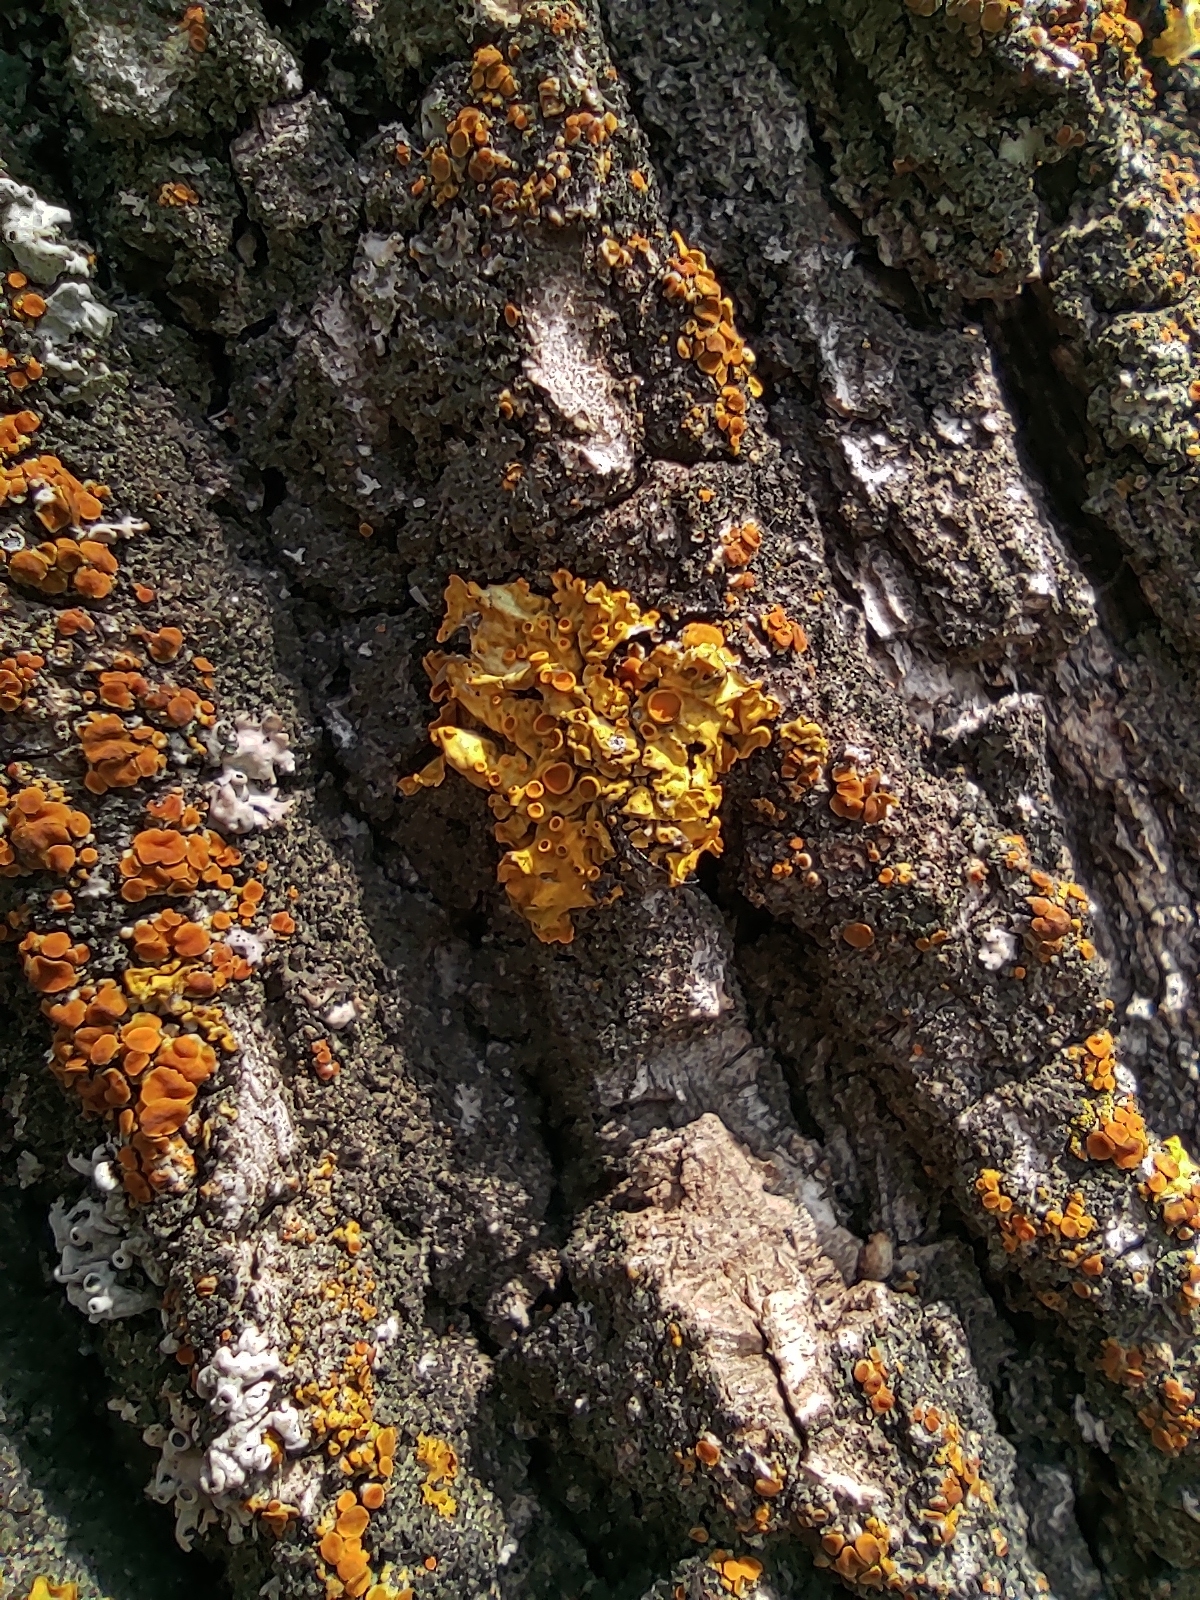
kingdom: Fungi
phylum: Ascomycota
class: Lecanoromycetes
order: Teloschistales
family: Teloschistaceae
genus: Xanthoria
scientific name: Xanthoria parietina
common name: Common orange lichen
